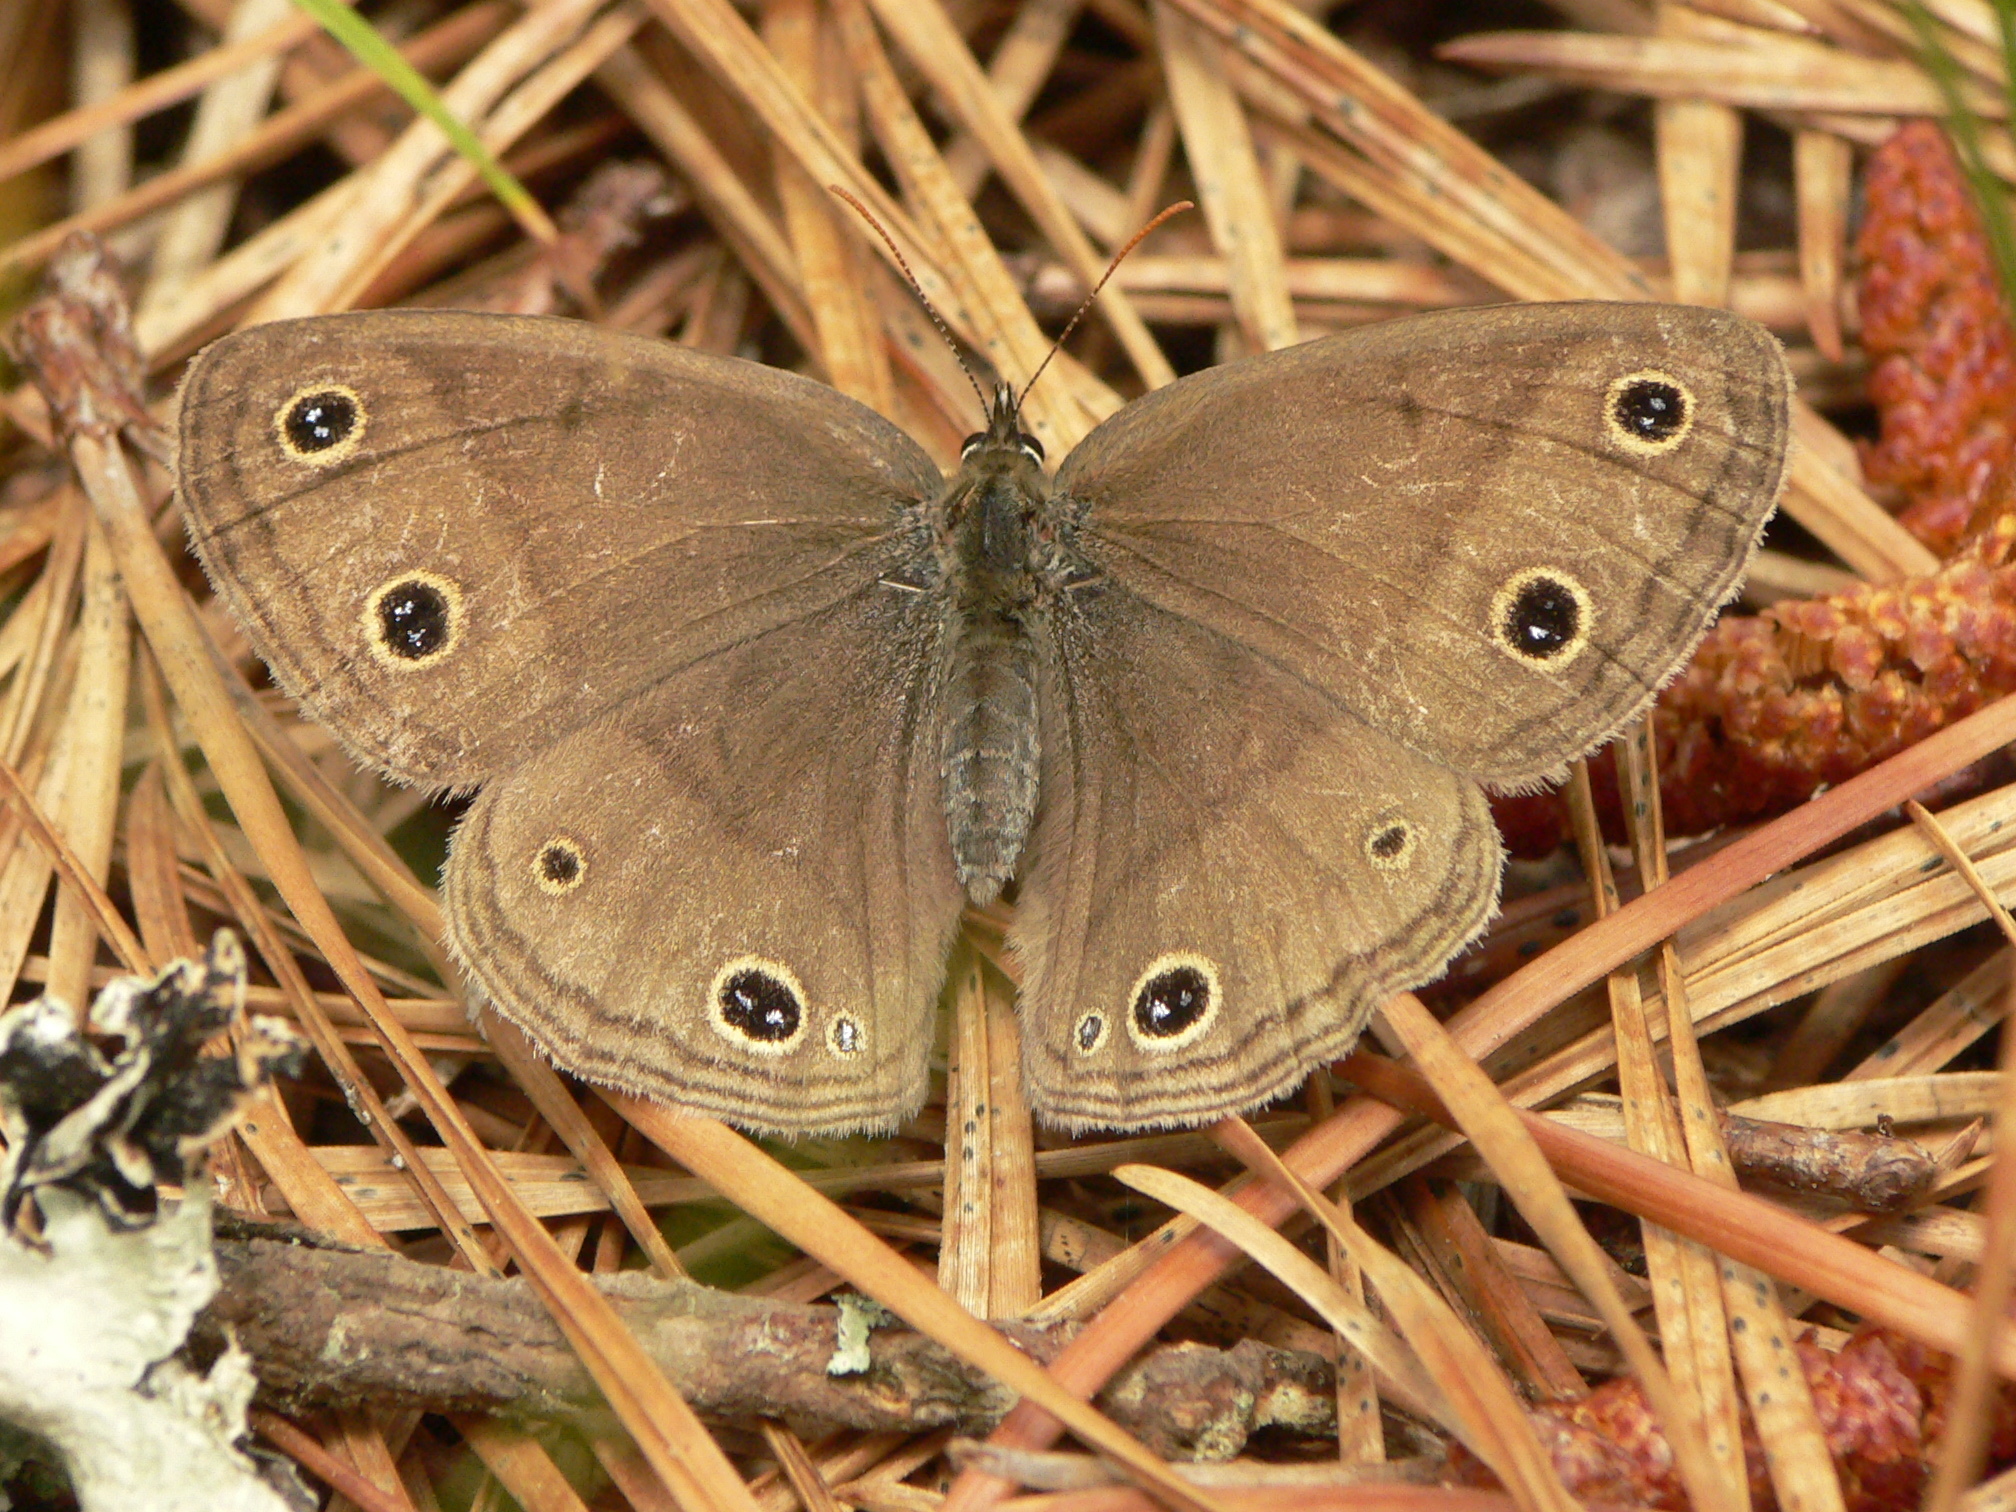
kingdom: Animalia
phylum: Arthropoda
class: Insecta
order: Lepidoptera
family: Nymphalidae
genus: Euptychia
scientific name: Euptychia cymela
